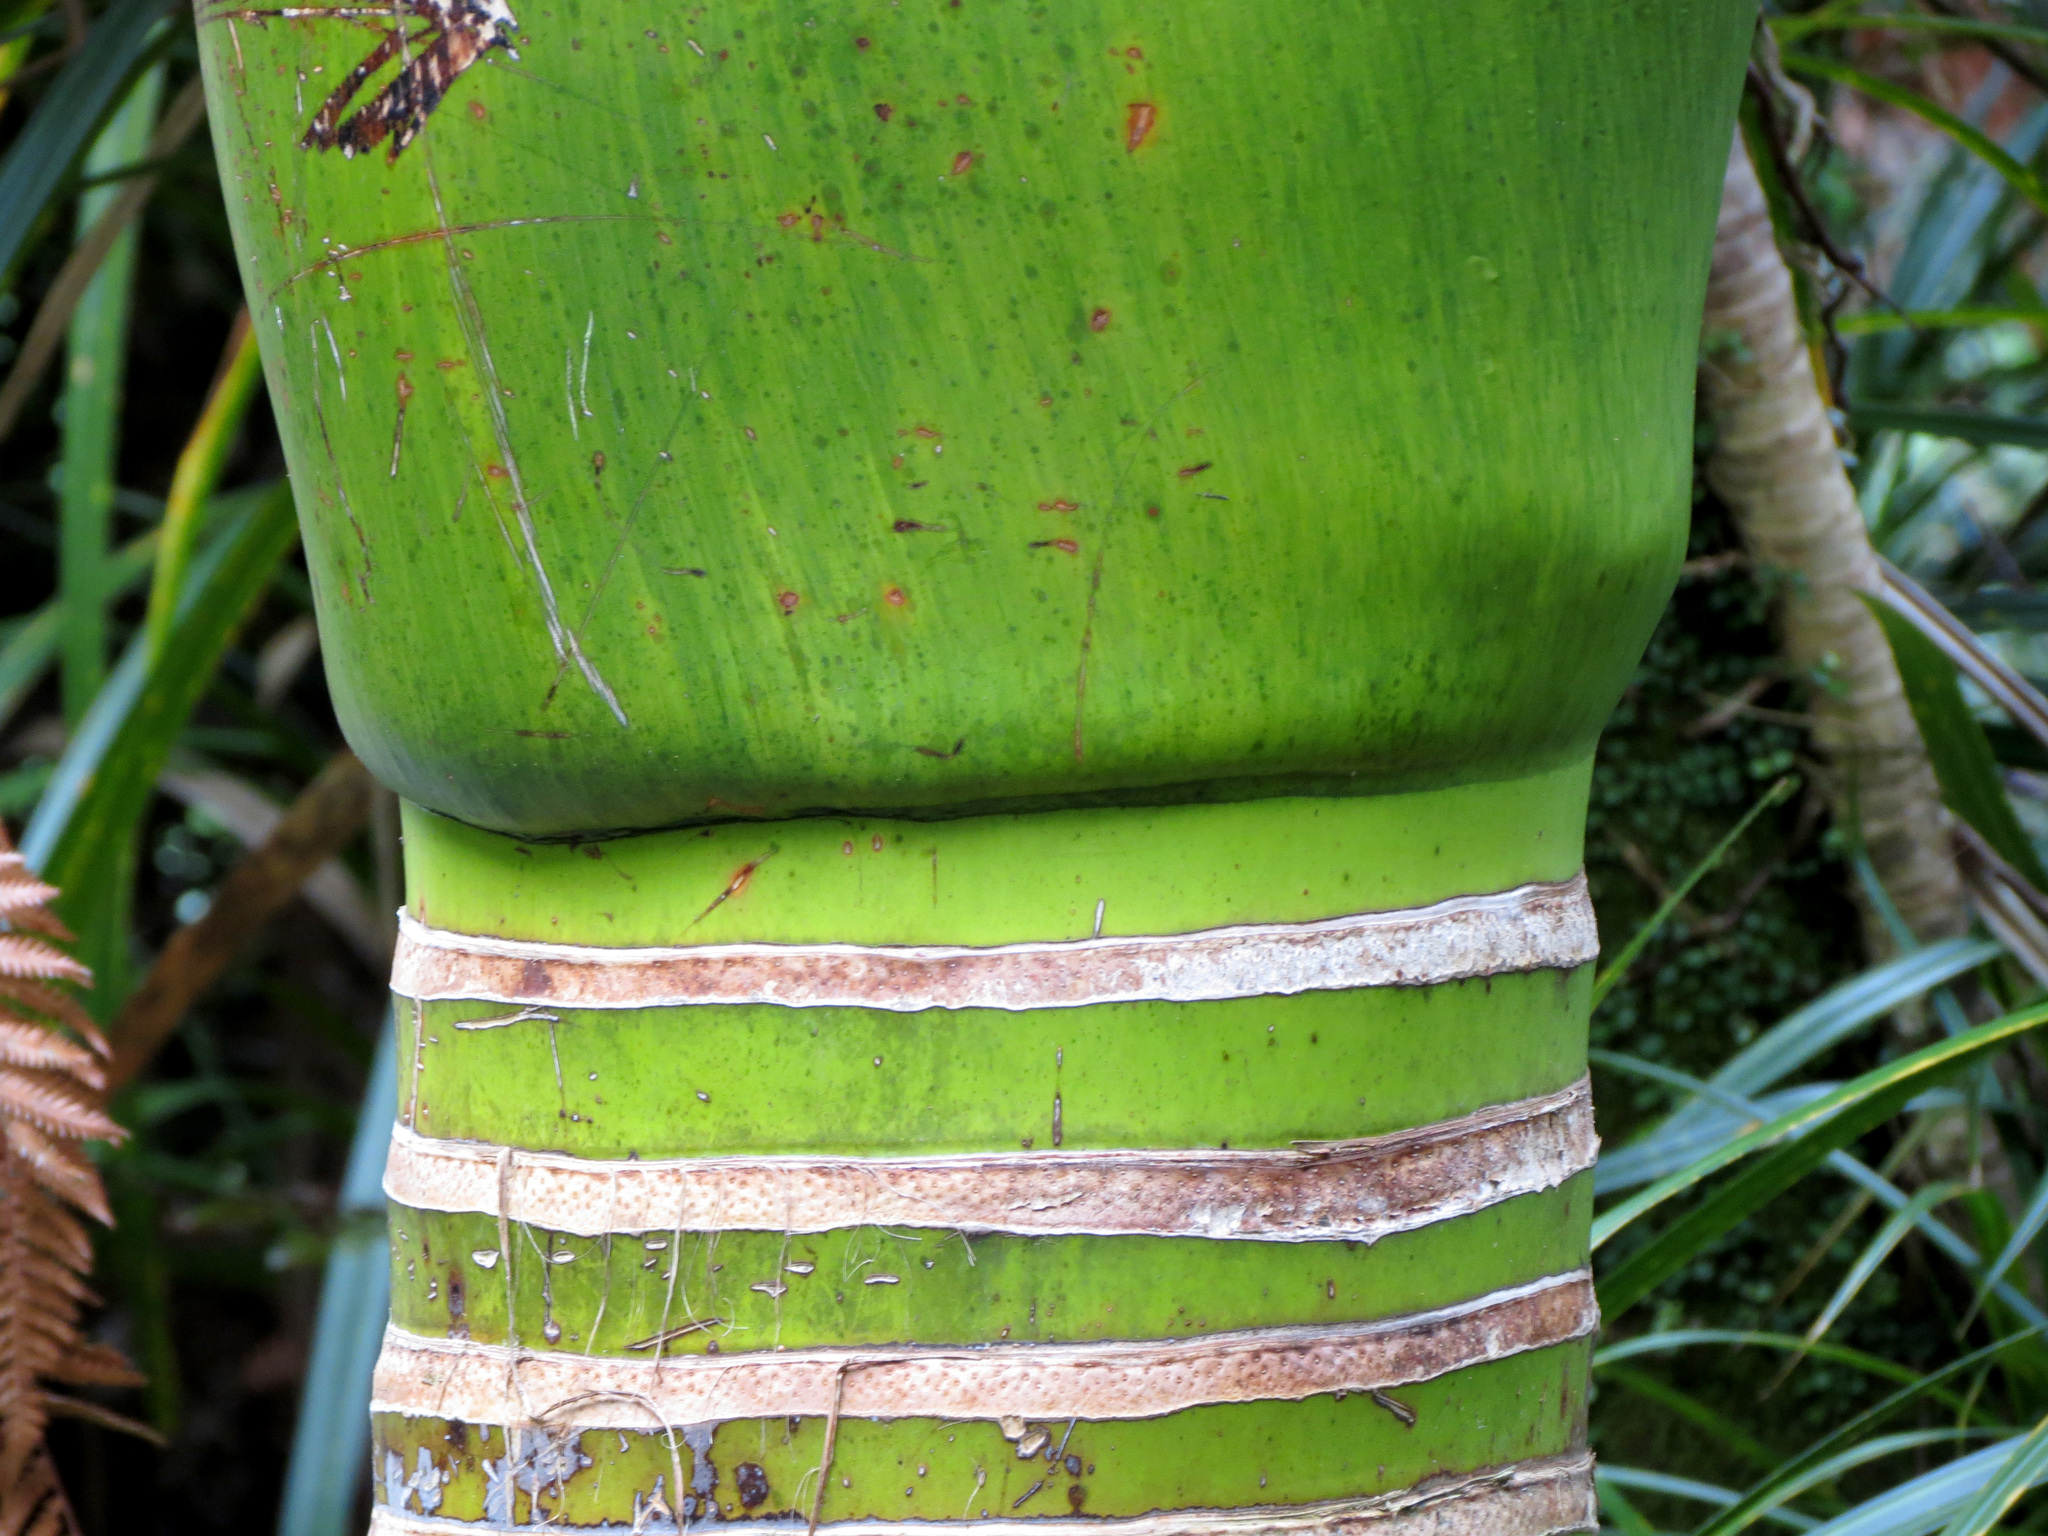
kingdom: Plantae
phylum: Tracheophyta
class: Liliopsida
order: Arecales
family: Arecaceae
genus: Rhopalostylis
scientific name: Rhopalostylis sapida
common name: Feather-duster palm
